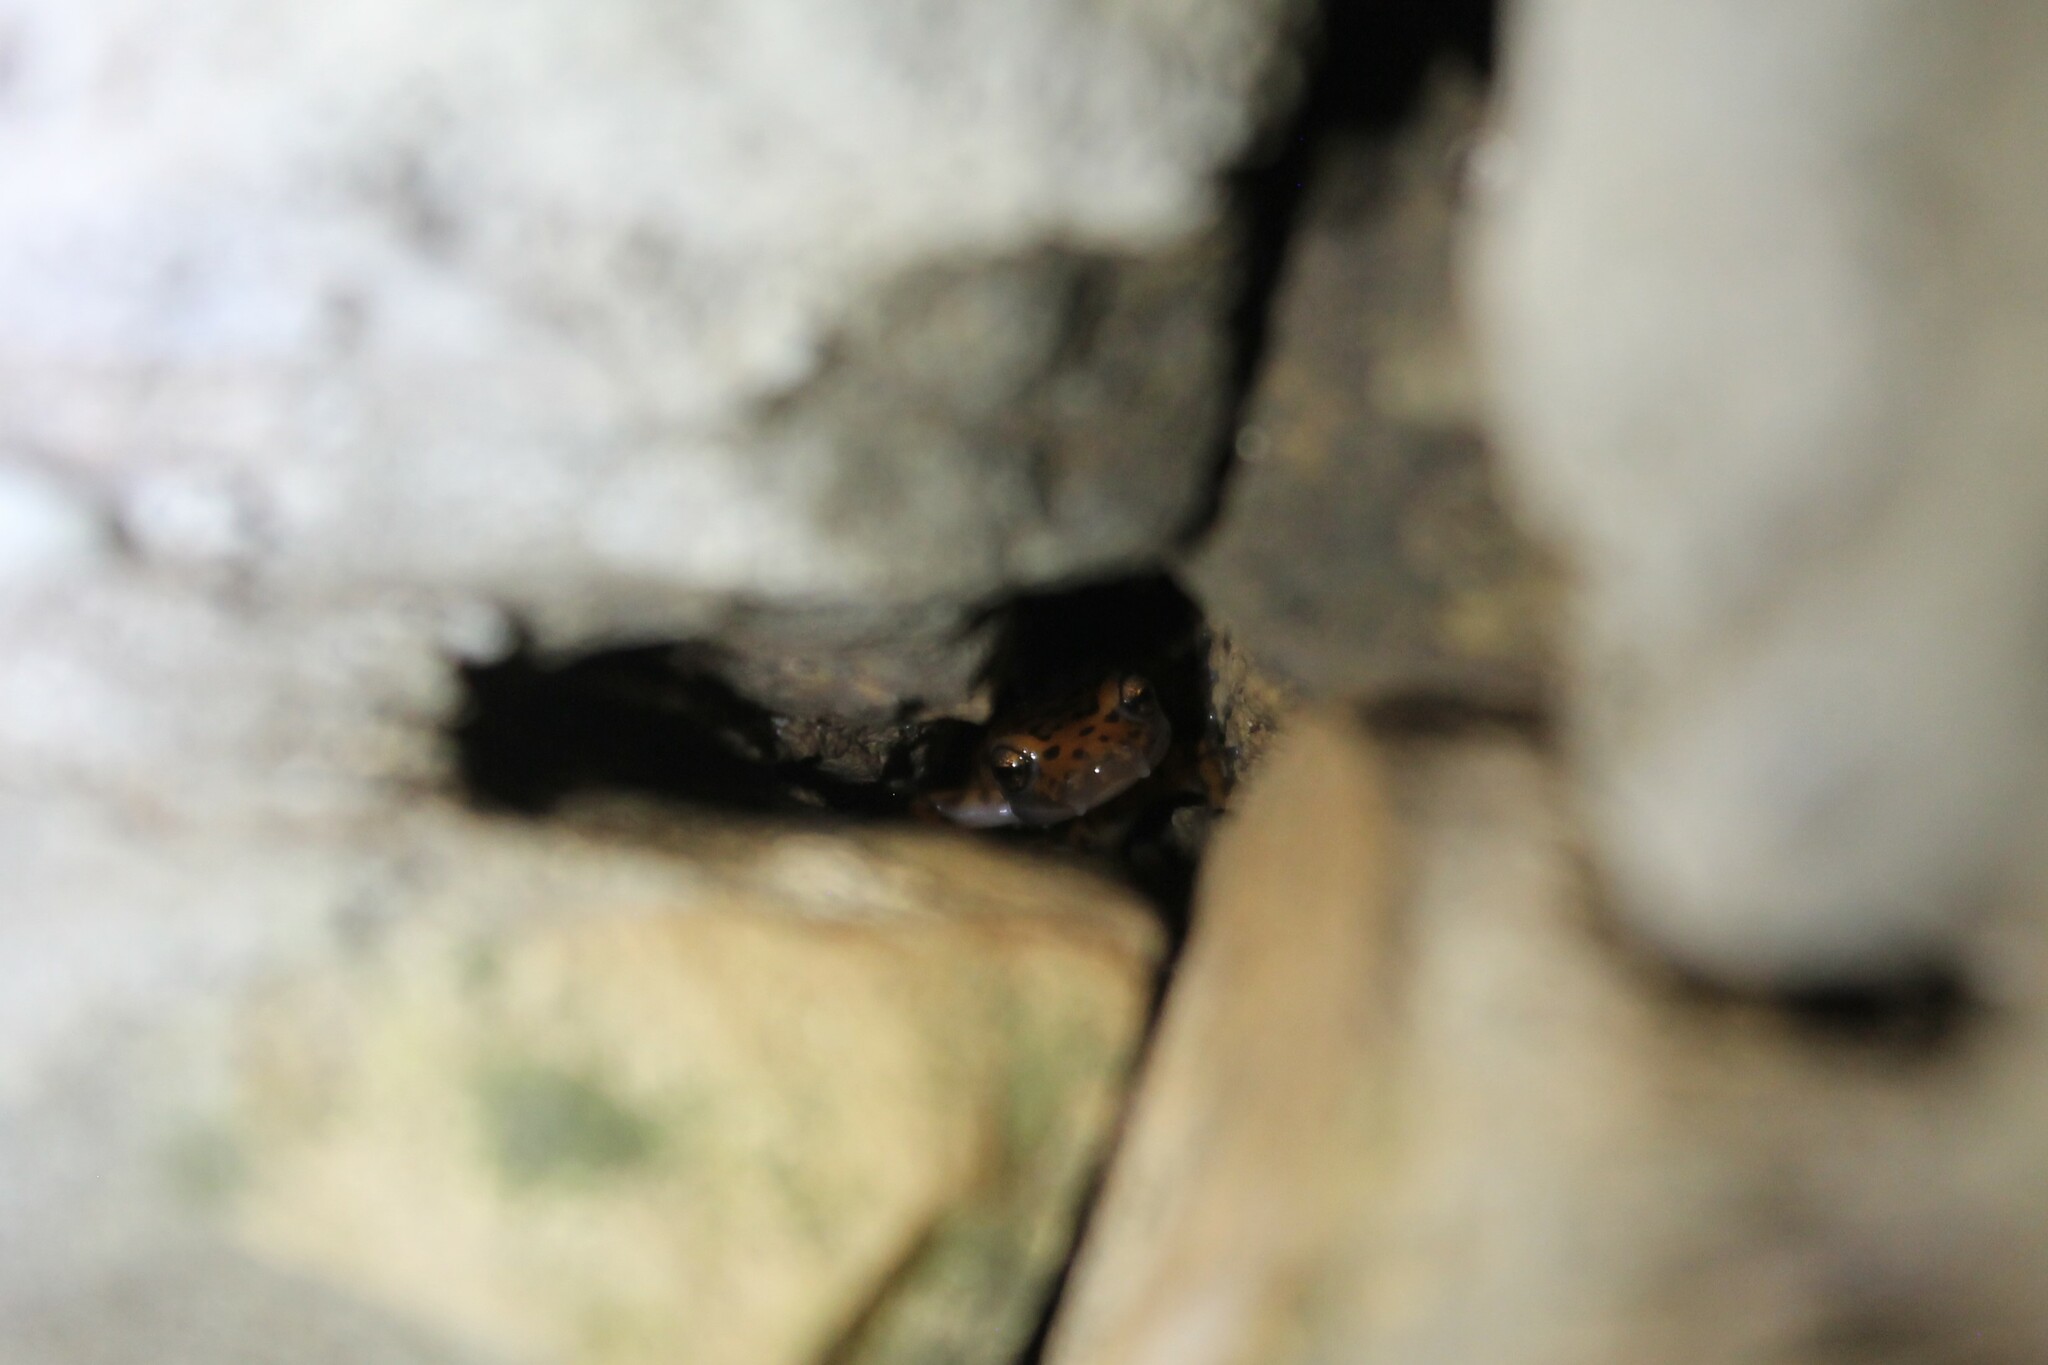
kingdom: Animalia
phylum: Chordata
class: Amphibia
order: Caudata
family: Plethodontidae
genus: Eurycea
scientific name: Eurycea lucifuga
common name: Cave salamander
